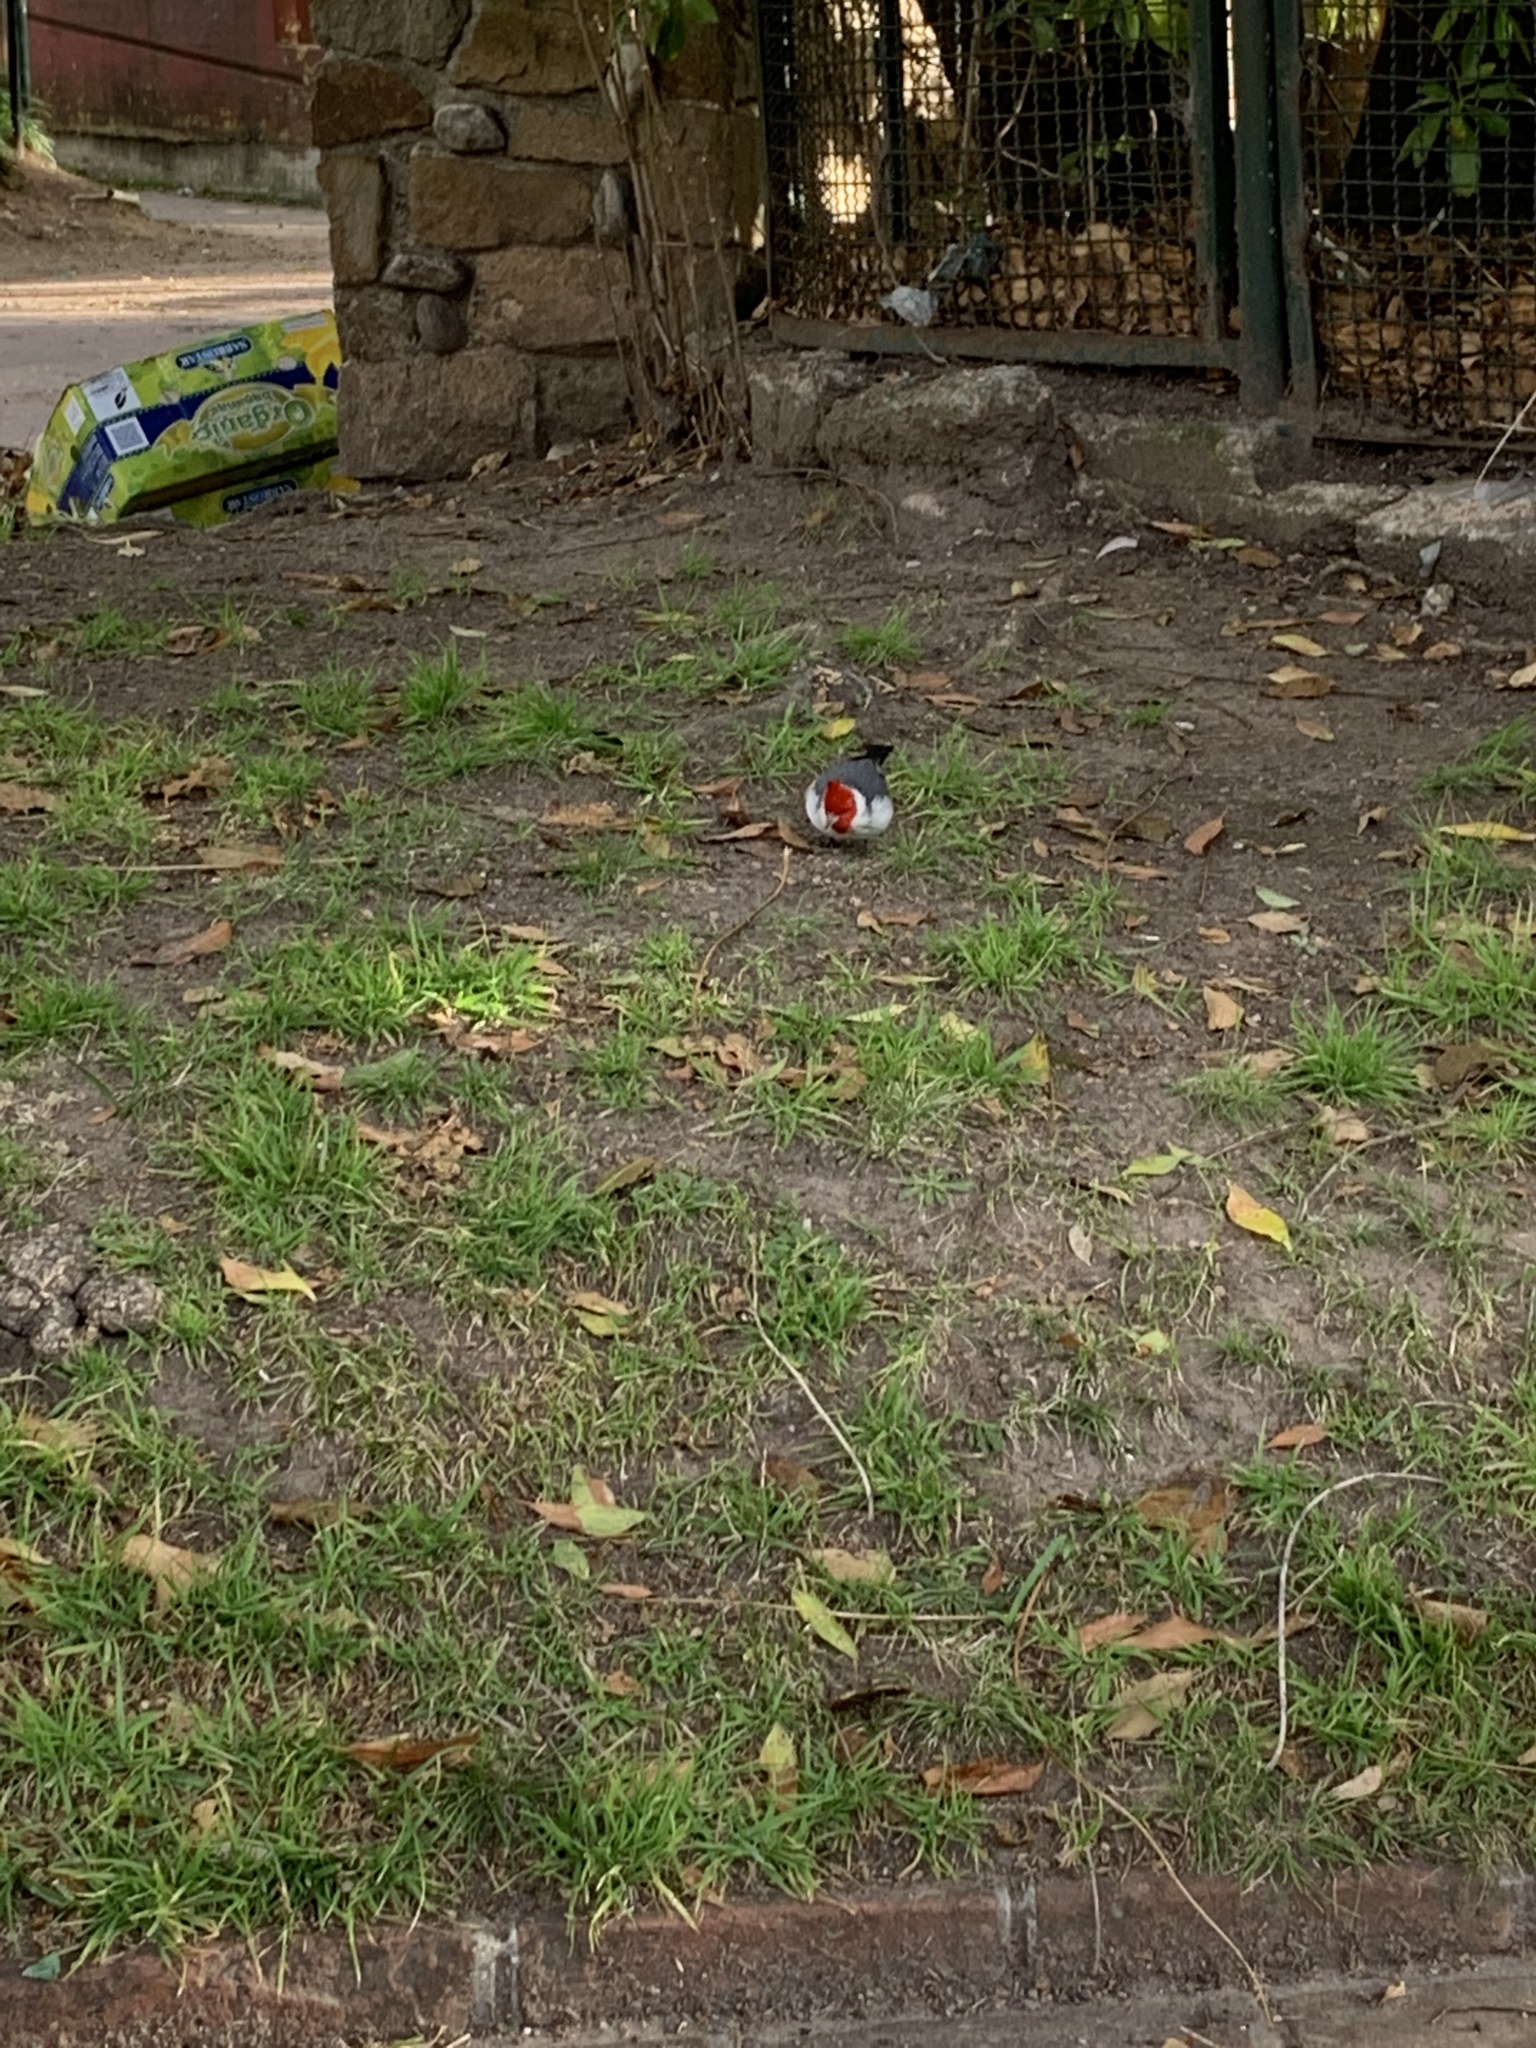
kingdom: Animalia
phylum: Chordata
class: Aves
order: Passeriformes
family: Thraupidae
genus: Paroaria
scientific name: Paroaria coronata
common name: Red-crested cardinal
